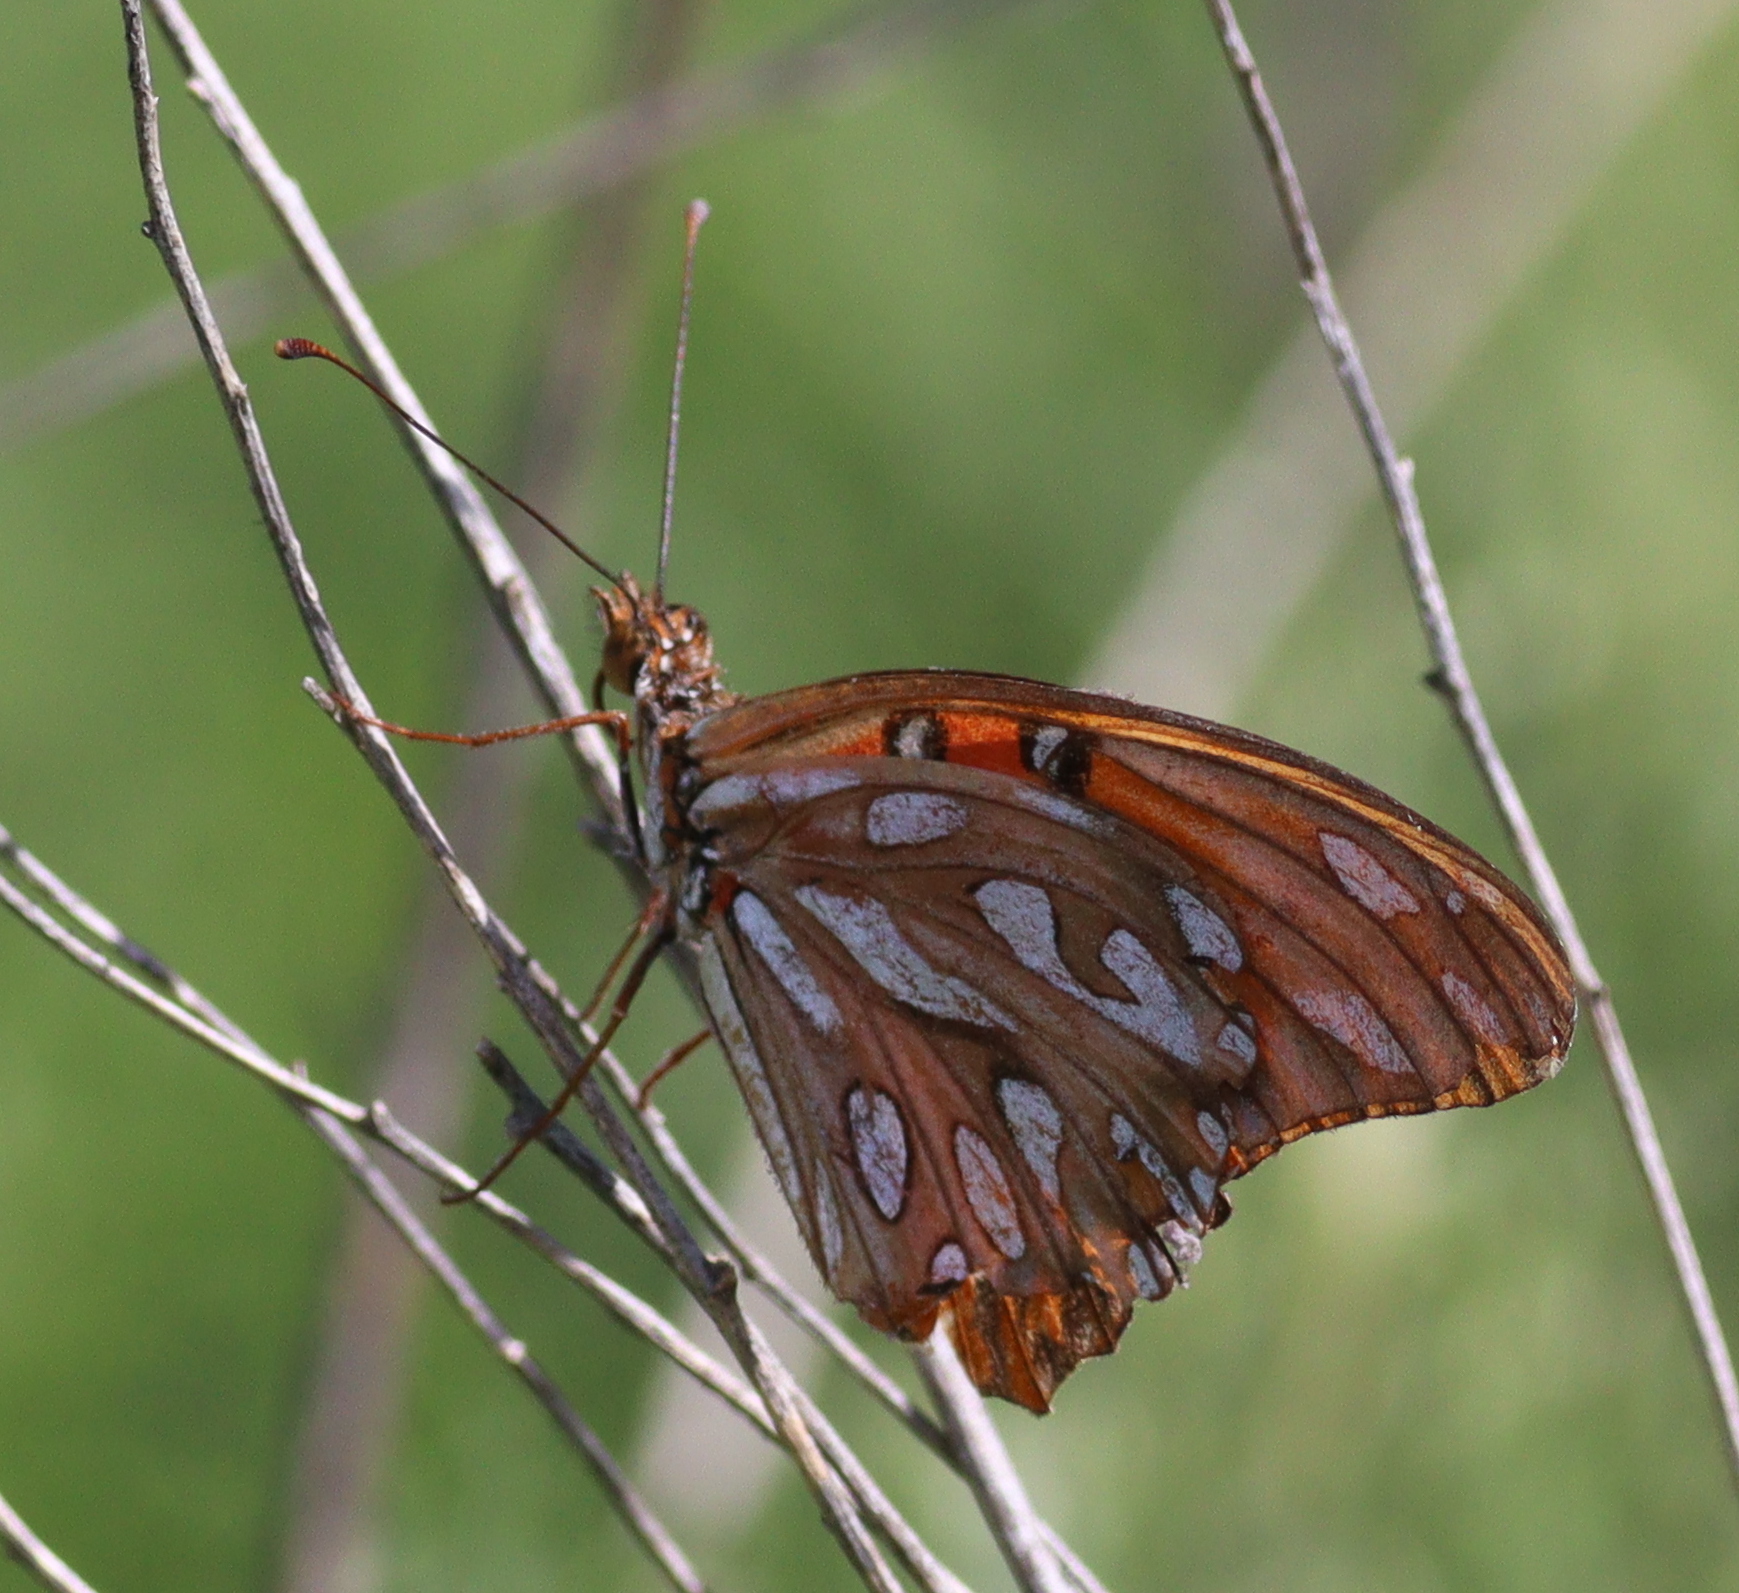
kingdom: Animalia
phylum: Arthropoda
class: Insecta
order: Lepidoptera
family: Nymphalidae
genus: Dione
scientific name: Dione vanillae
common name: Gulf fritillary
